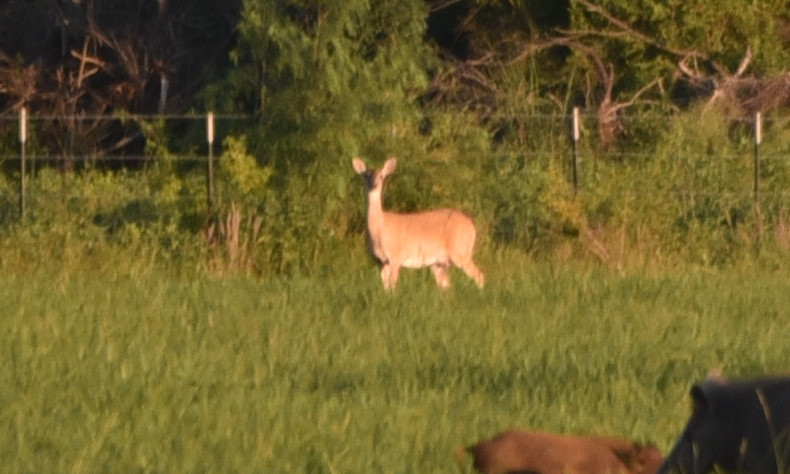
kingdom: Animalia
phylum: Chordata
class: Mammalia
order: Artiodactyla
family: Cervidae
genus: Odocoileus
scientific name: Odocoileus virginianus
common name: White-tailed deer
